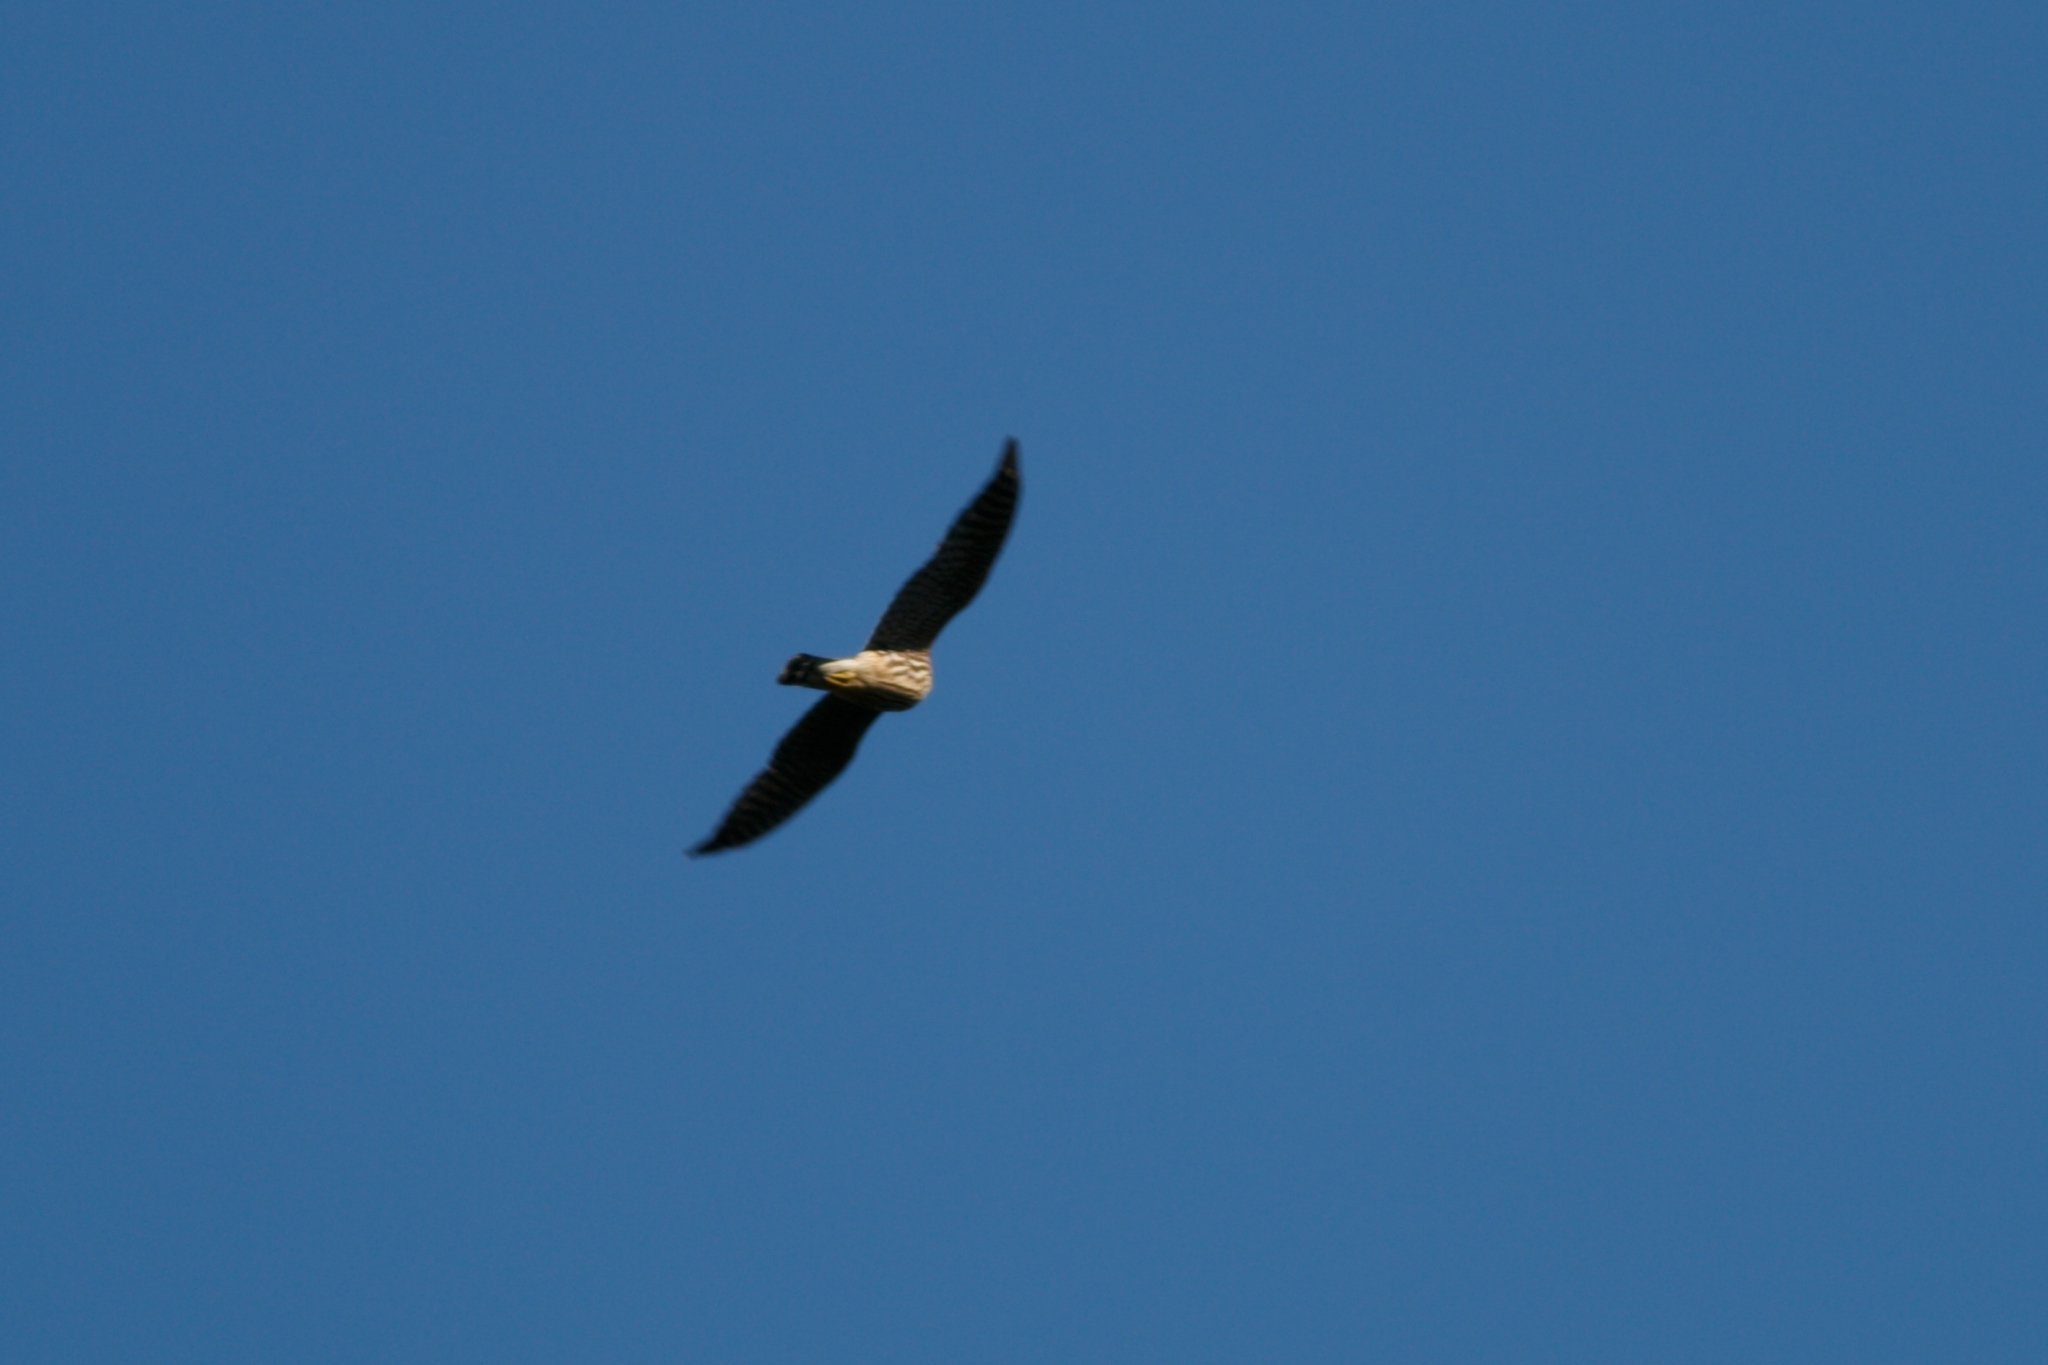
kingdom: Animalia
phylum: Chordata
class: Aves
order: Falconiformes
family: Falconidae
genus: Falco
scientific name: Falco columbarius
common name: Merlin
